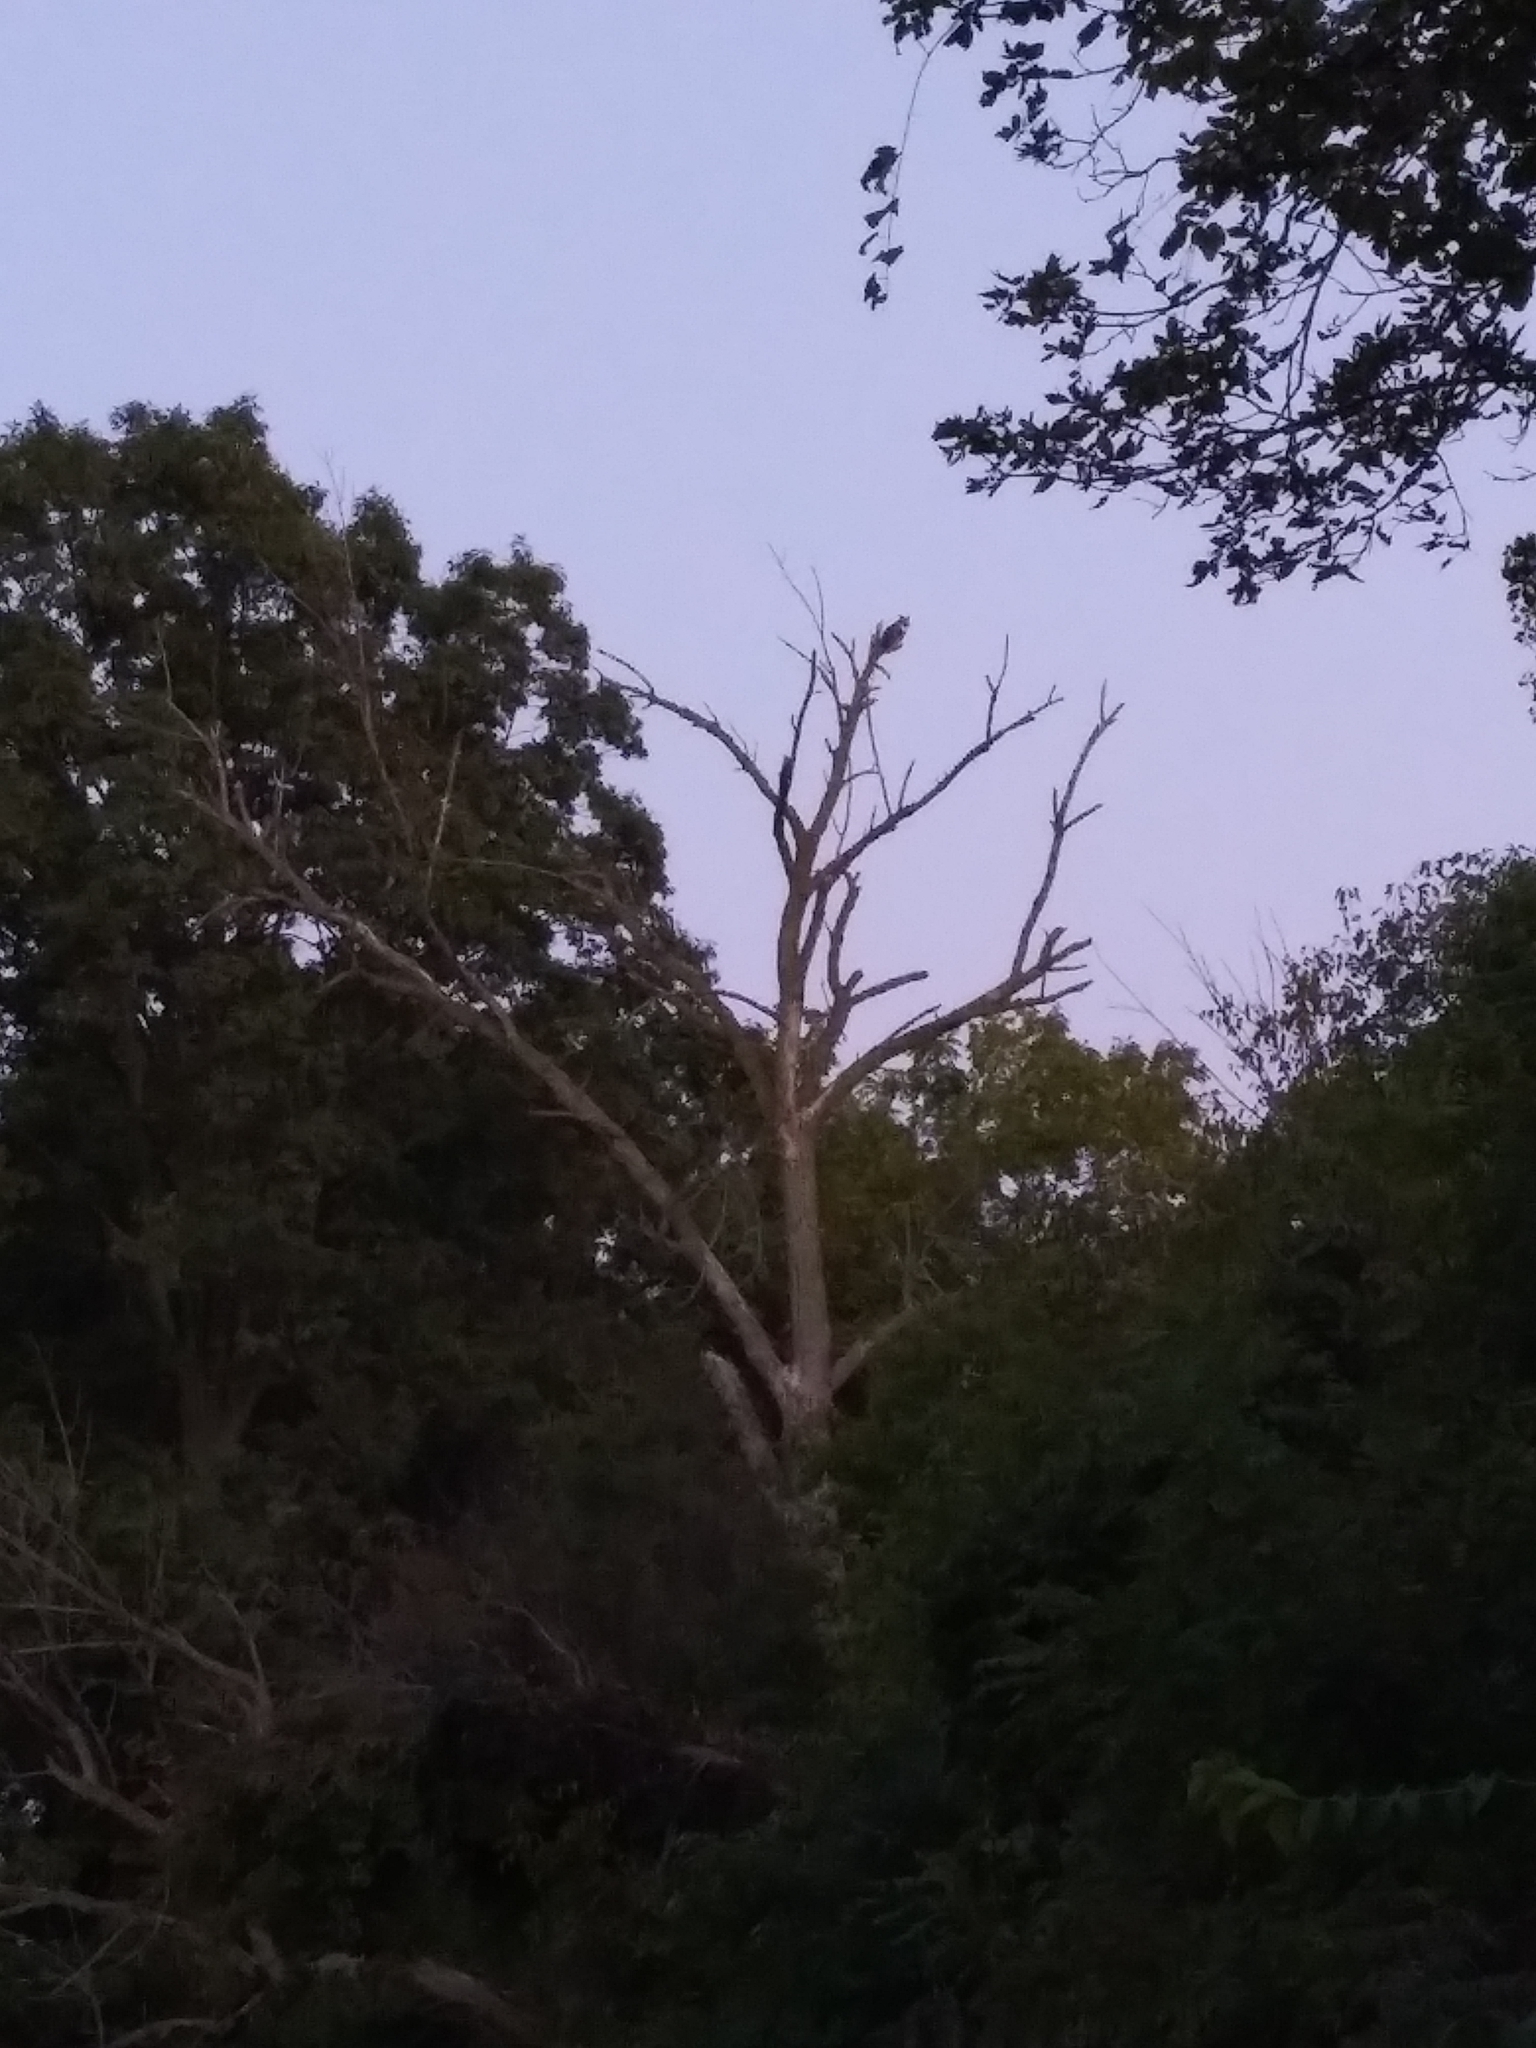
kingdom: Animalia
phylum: Chordata
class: Aves
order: Strigiformes
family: Strigidae
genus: Bubo
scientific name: Bubo virginianus
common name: Great horned owl
